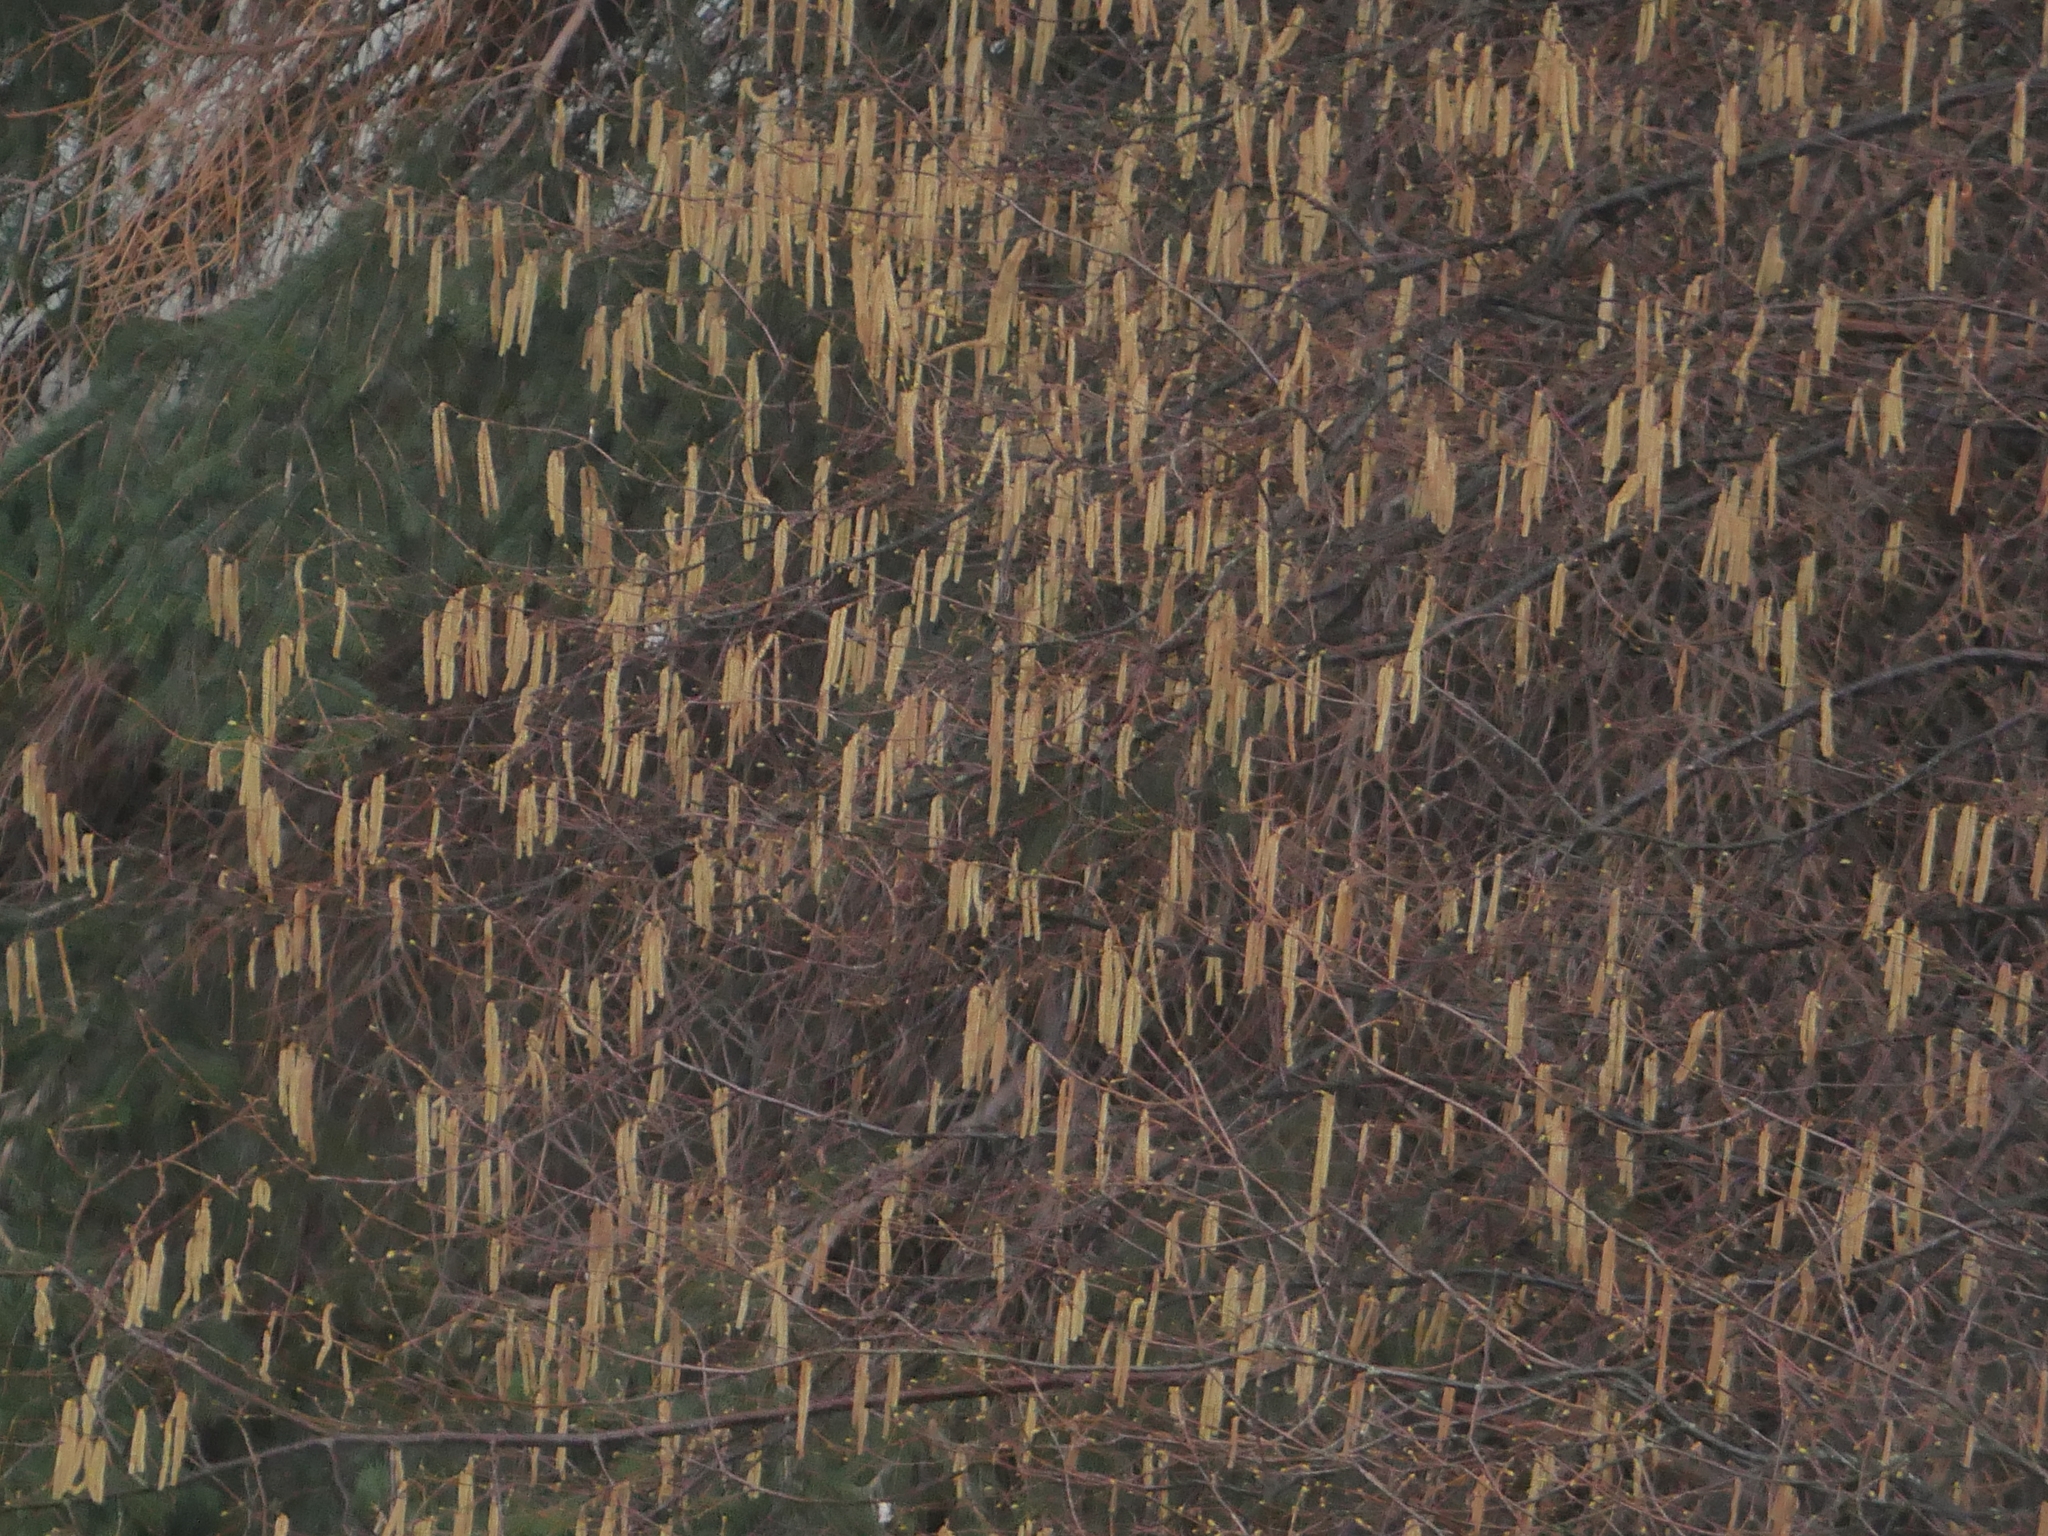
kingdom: Plantae
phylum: Tracheophyta
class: Magnoliopsida
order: Fagales
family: Betulaceae
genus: Corylus
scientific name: Corylus avellana
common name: European hazel
